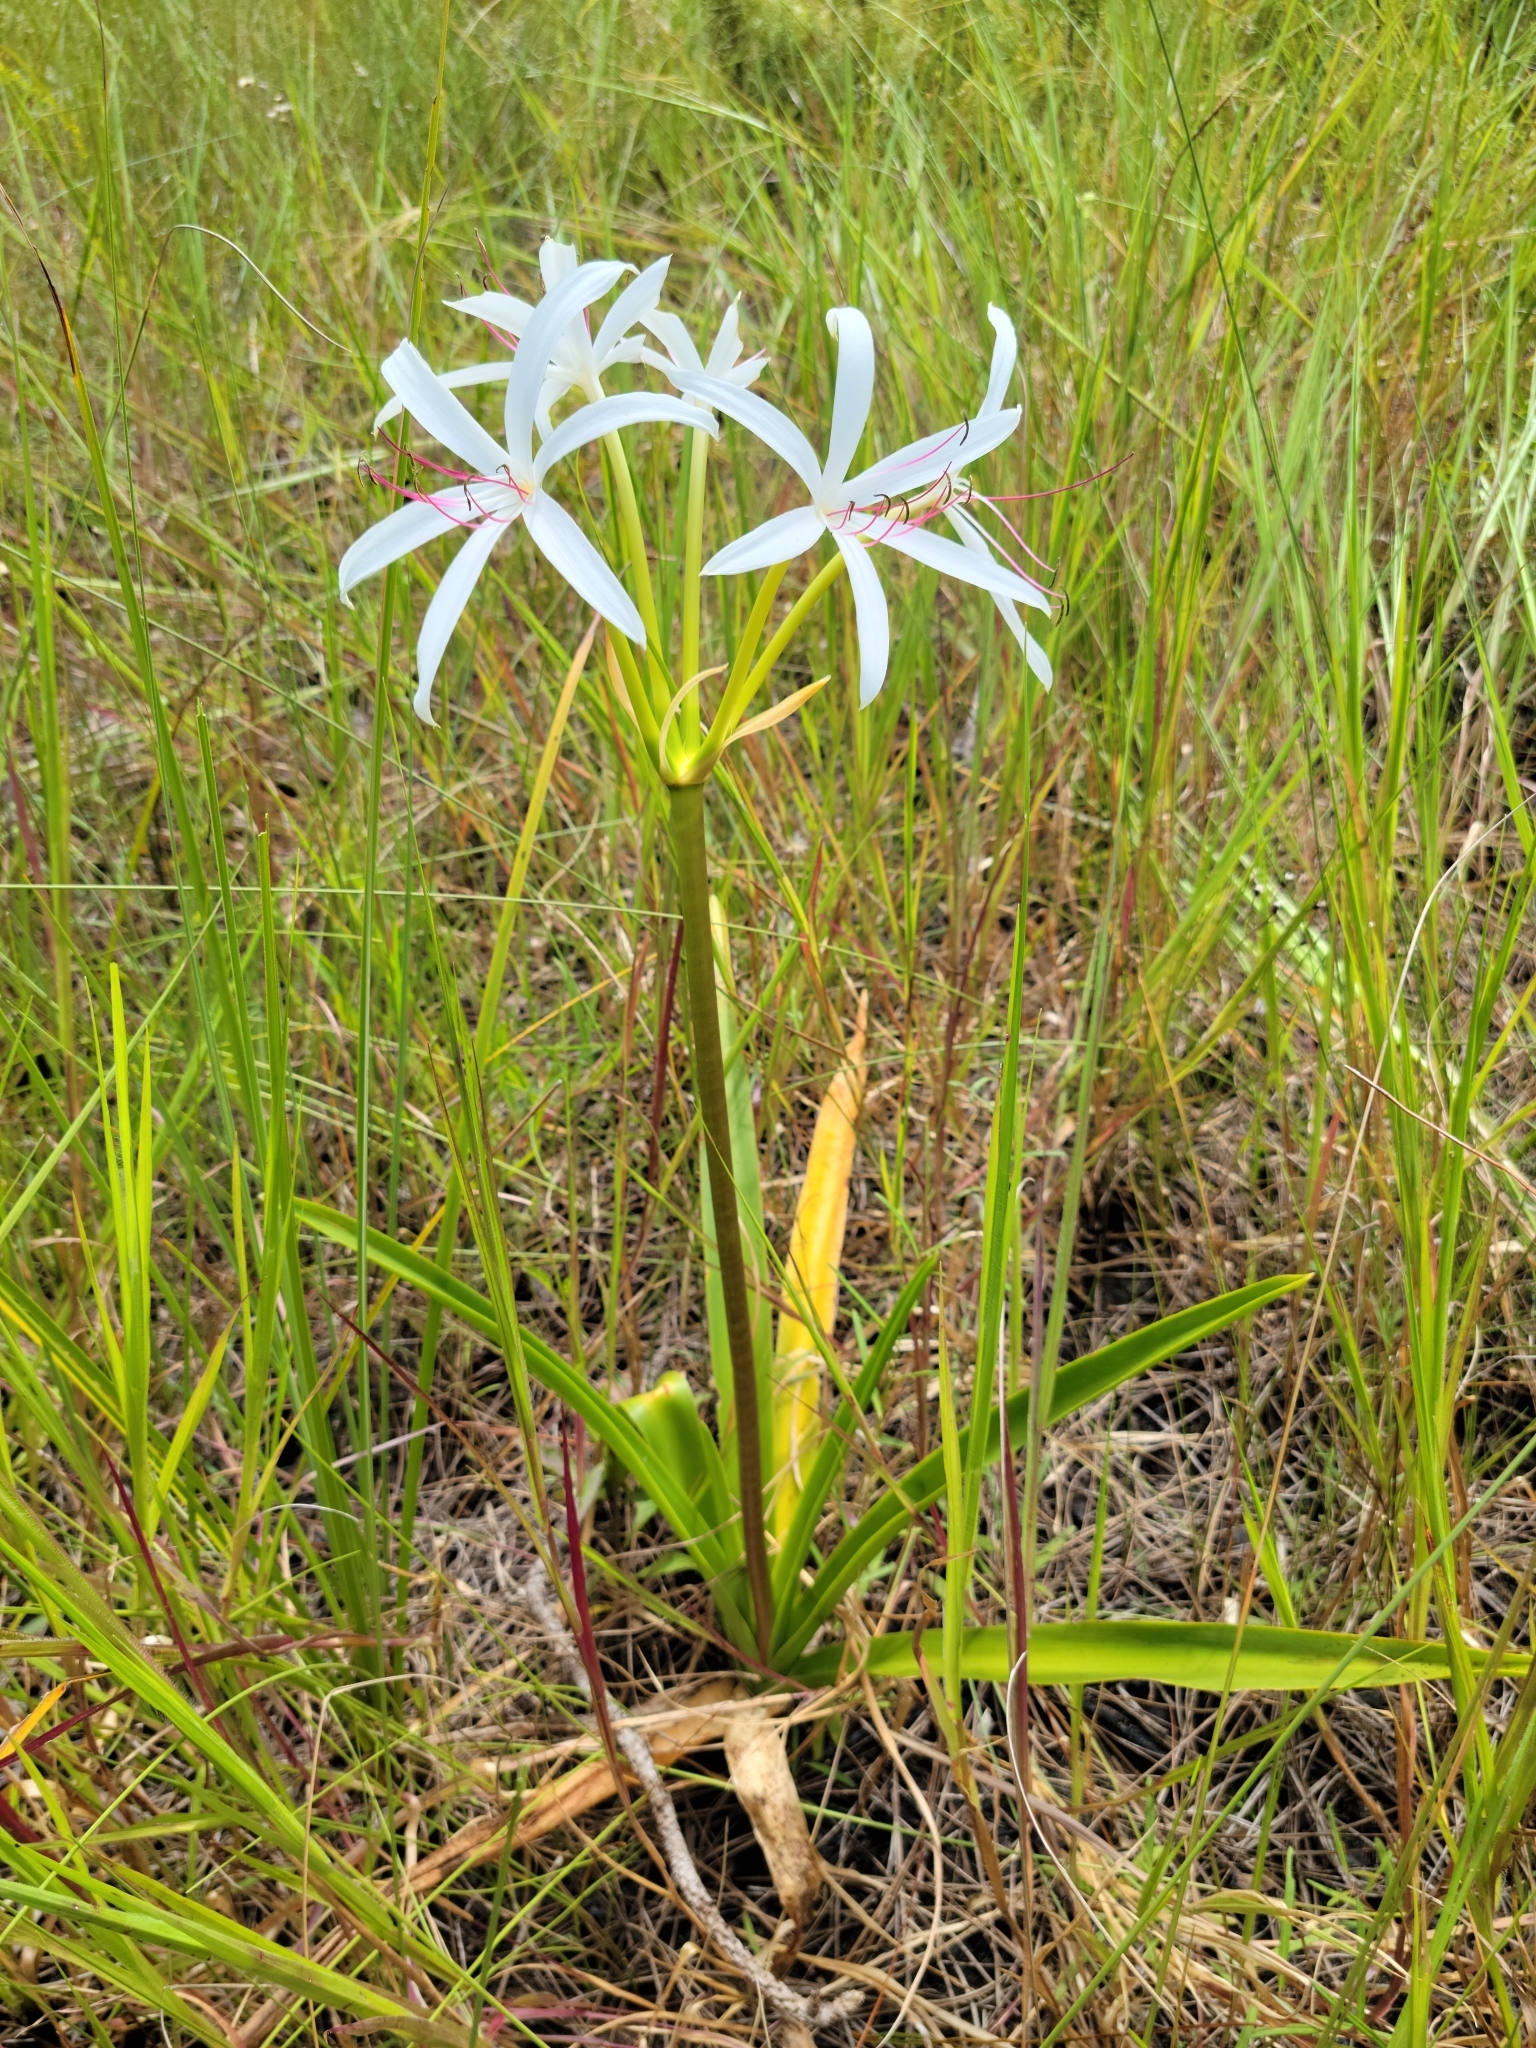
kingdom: Plantae
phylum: Tracheophyta
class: Liliopsida
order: Asparagales
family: Amaryllidaceae
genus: Crinum
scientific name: Crinum americanum
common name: Florida swamp-lily
